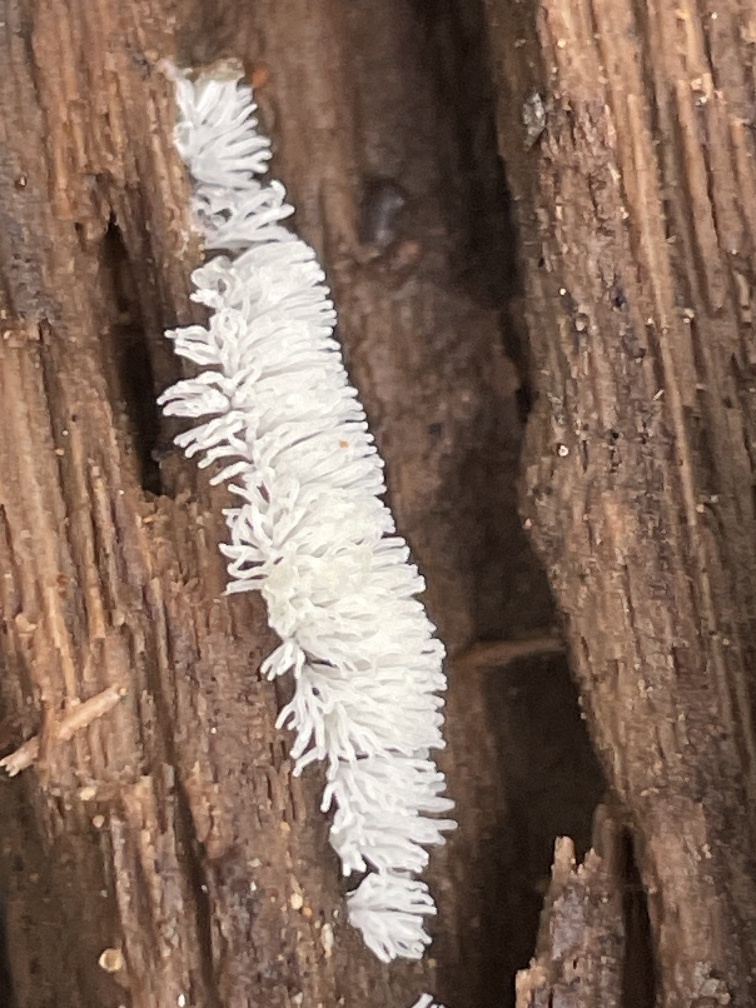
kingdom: Protozoa
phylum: Mycetozoa
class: Protosteliomycetes
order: Ceratiomyxales
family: Ceratiomyxaceae
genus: Ceratiomyxa
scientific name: Ceratiomyxa fruticulosa
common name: Honeycomb coral slime mold
